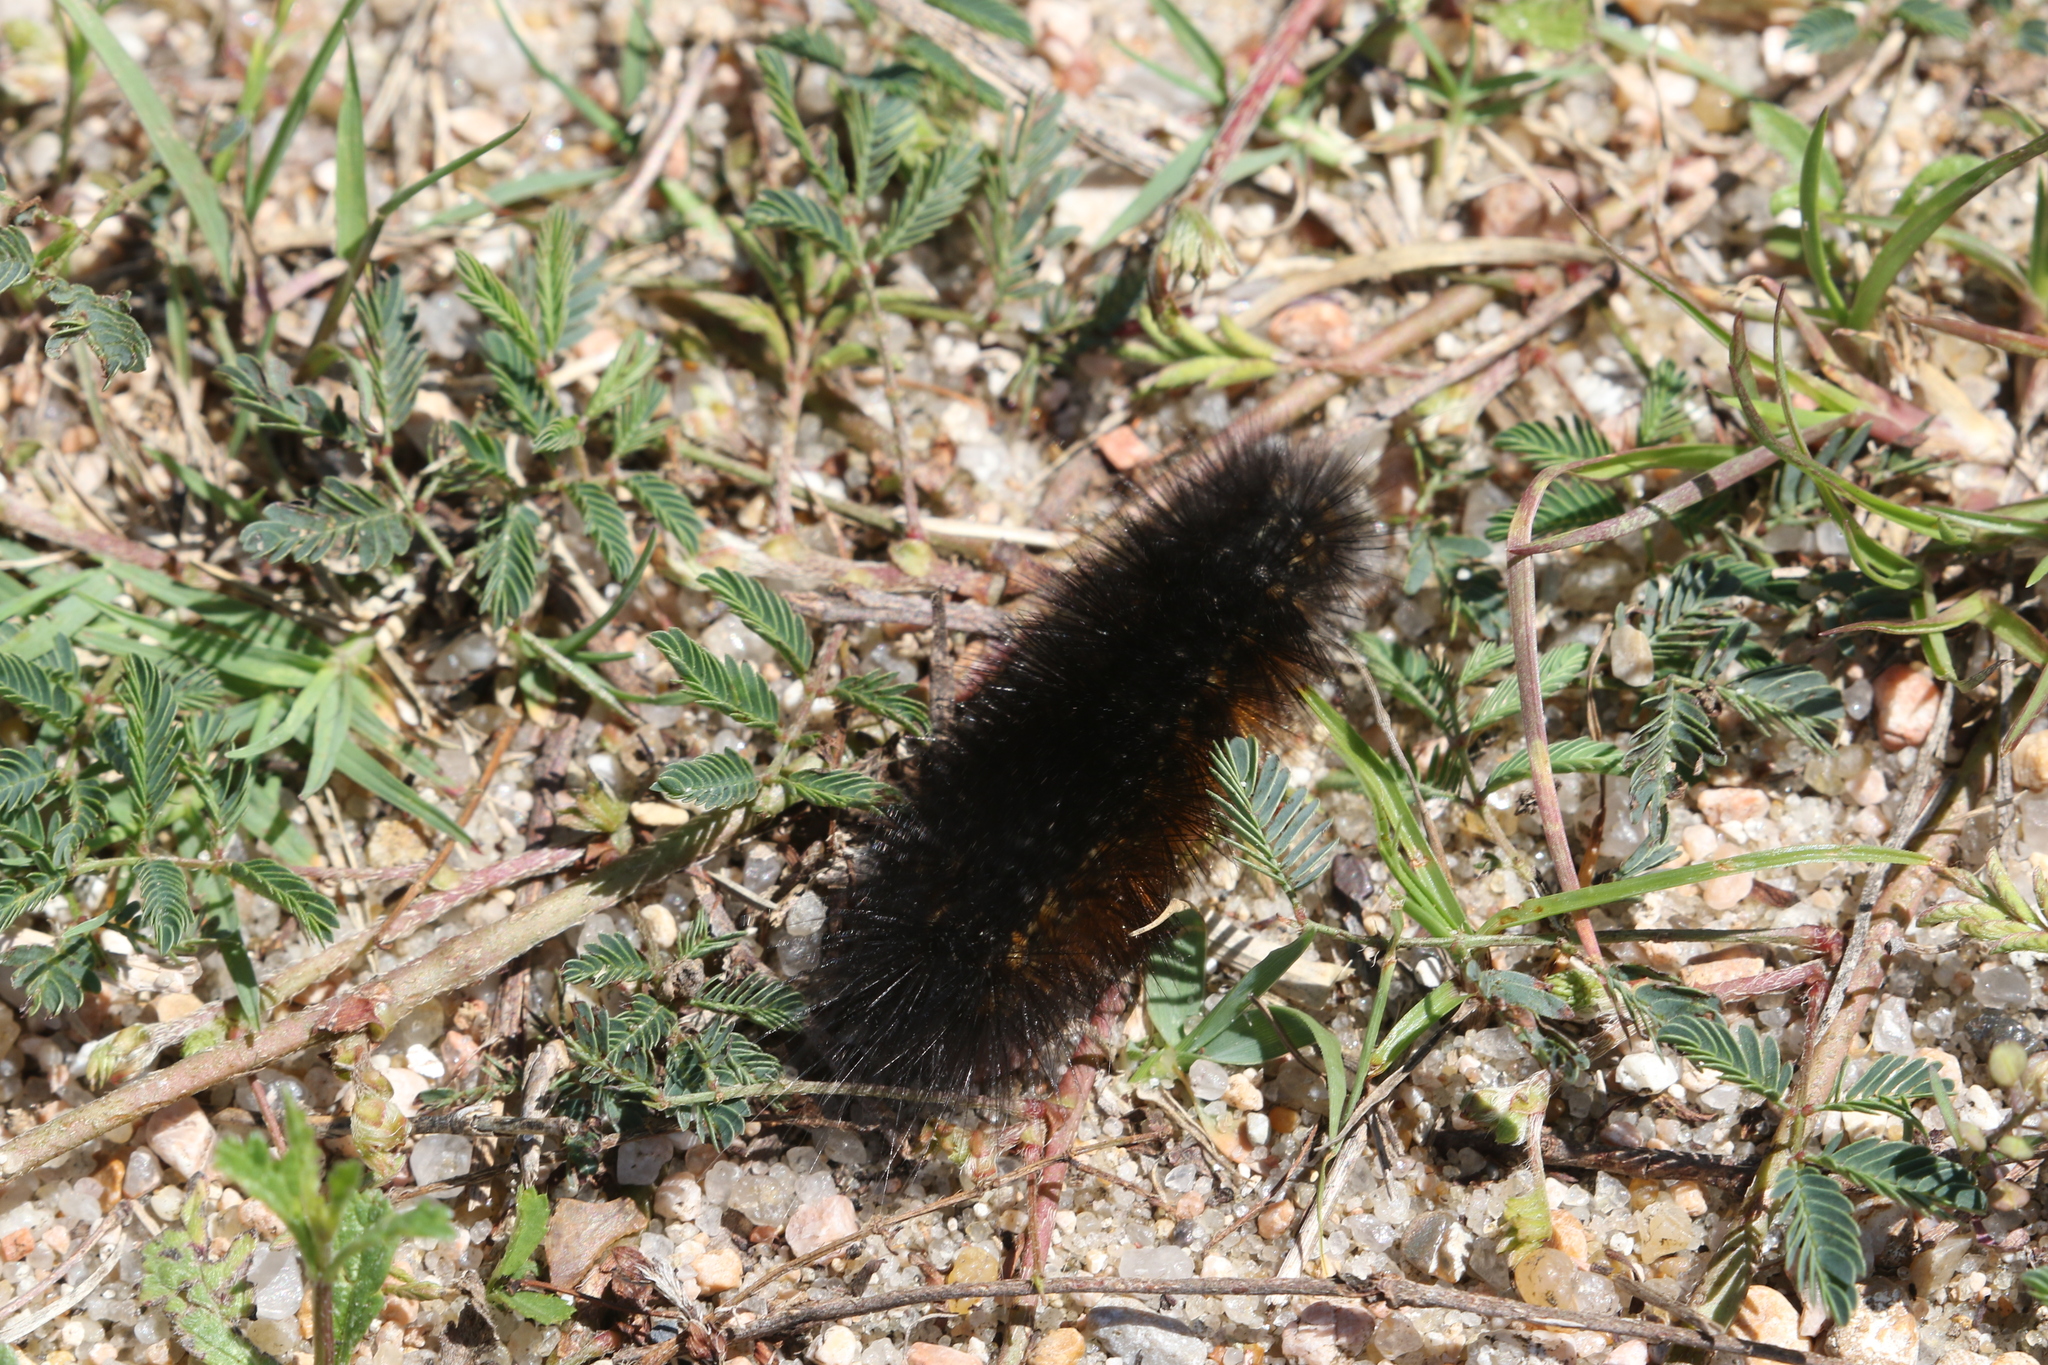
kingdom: Animalia
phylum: Arthropoda
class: Insecta
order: Lepidoptera
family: Erebidae
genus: Estigmene
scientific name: Estigmene acrea
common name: Salt marsh moth
